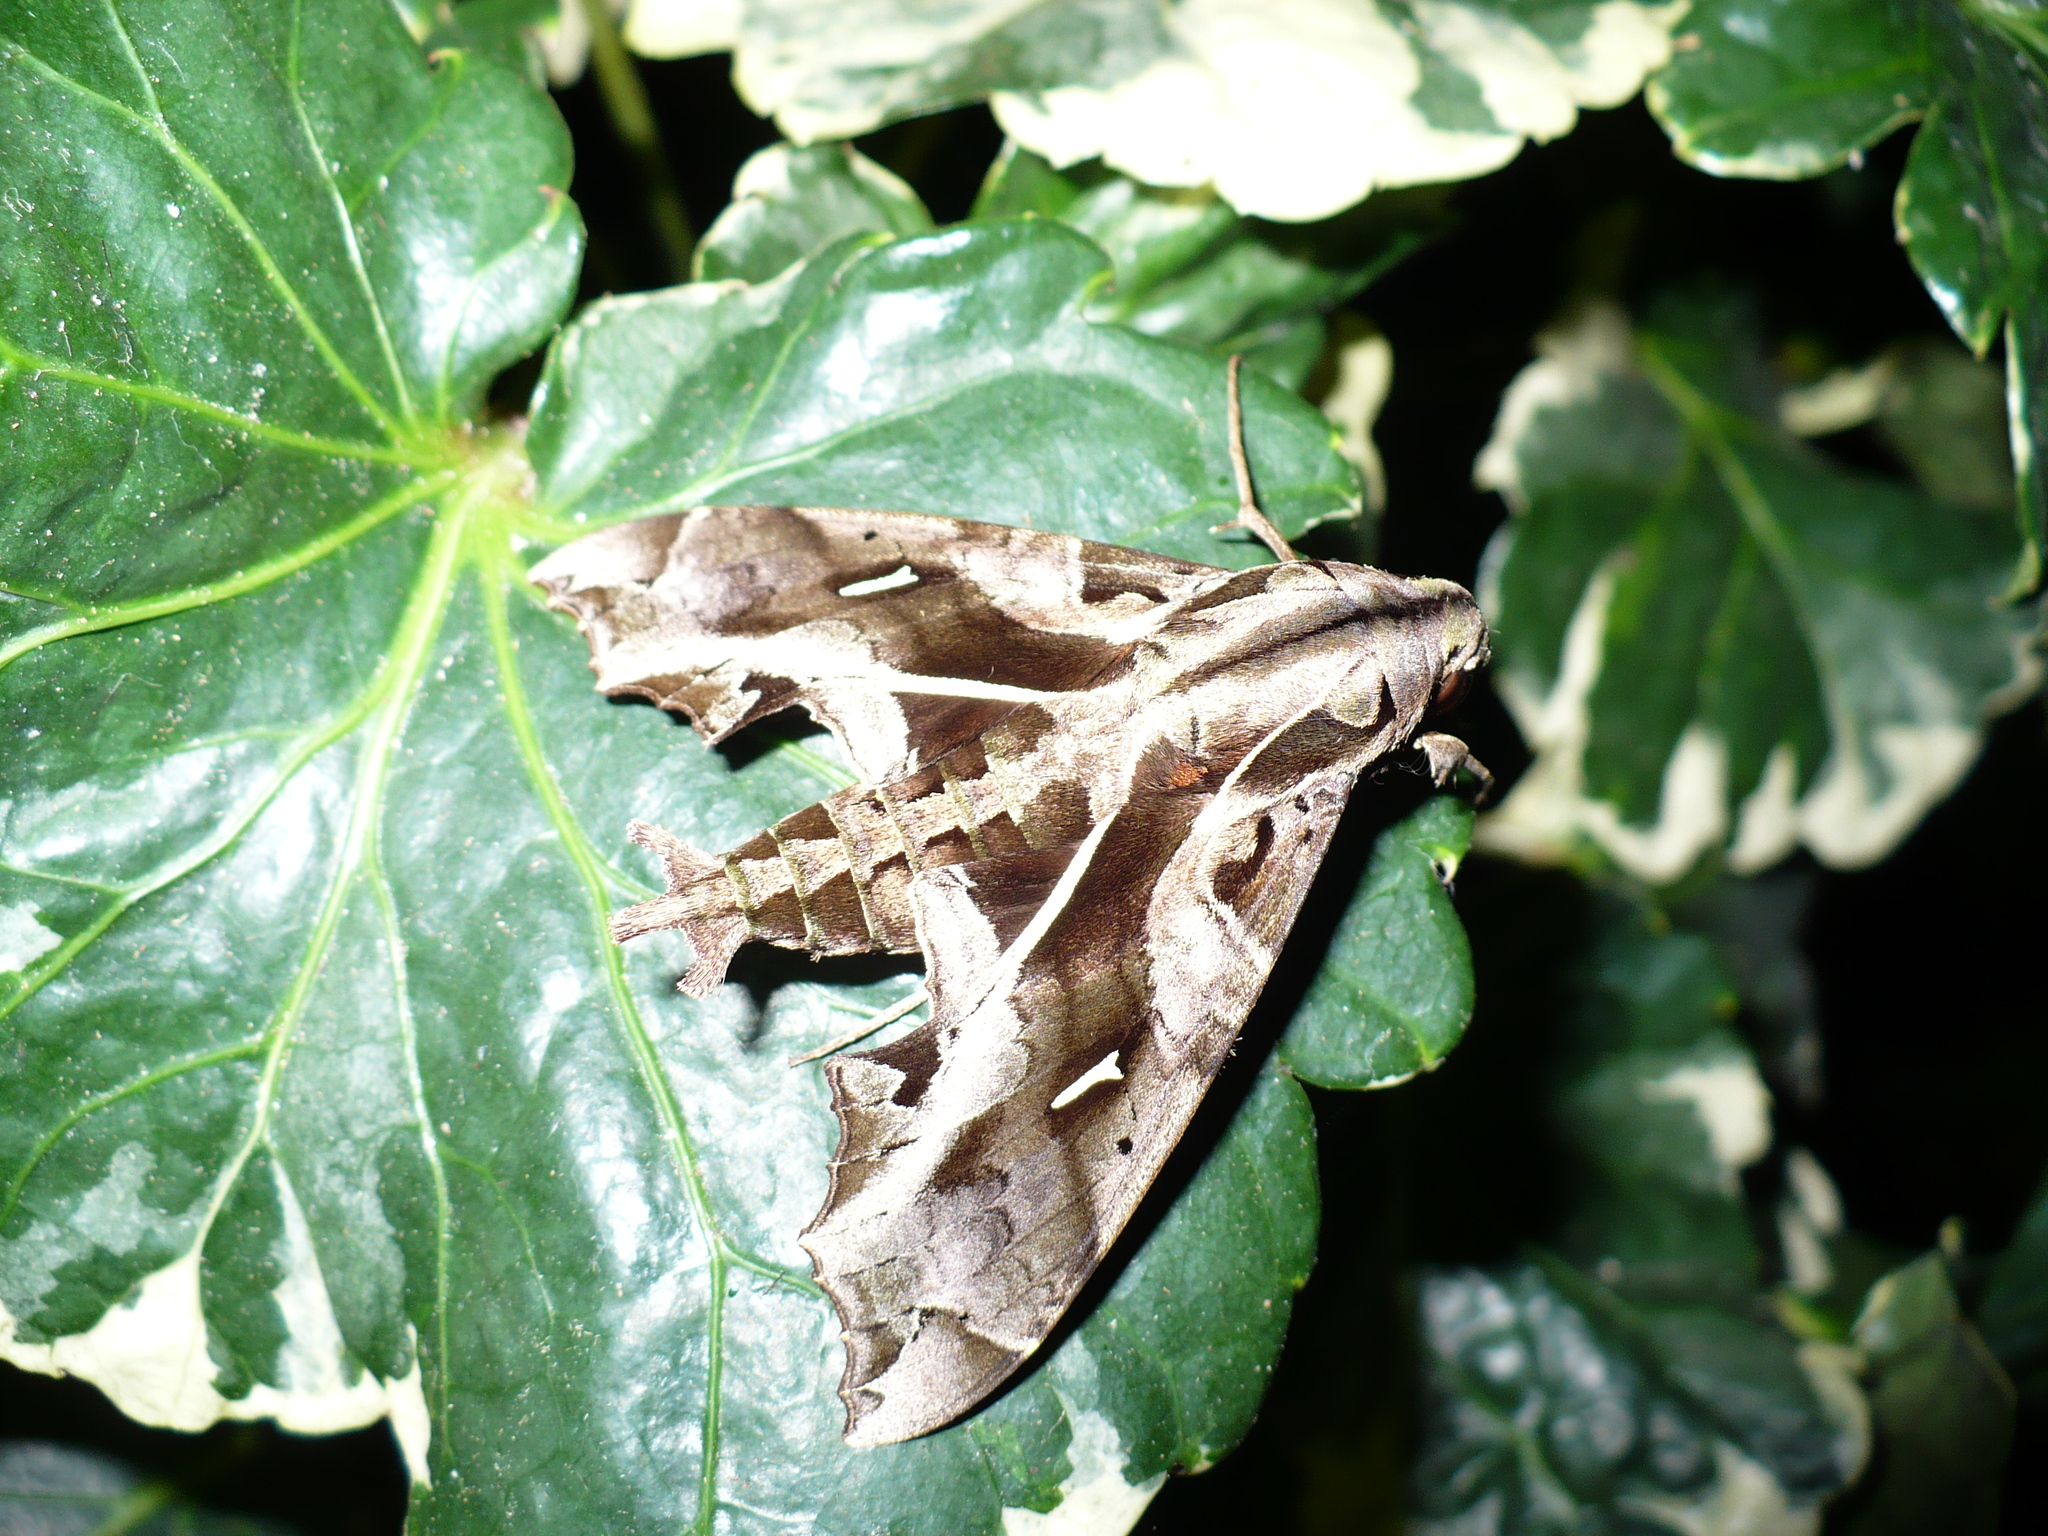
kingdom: Animalia
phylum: Arthropoda
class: Insecta
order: Lepidoptera
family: Sphingidae
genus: Hemeroplanes
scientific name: Hemeroplanes triptolemus
